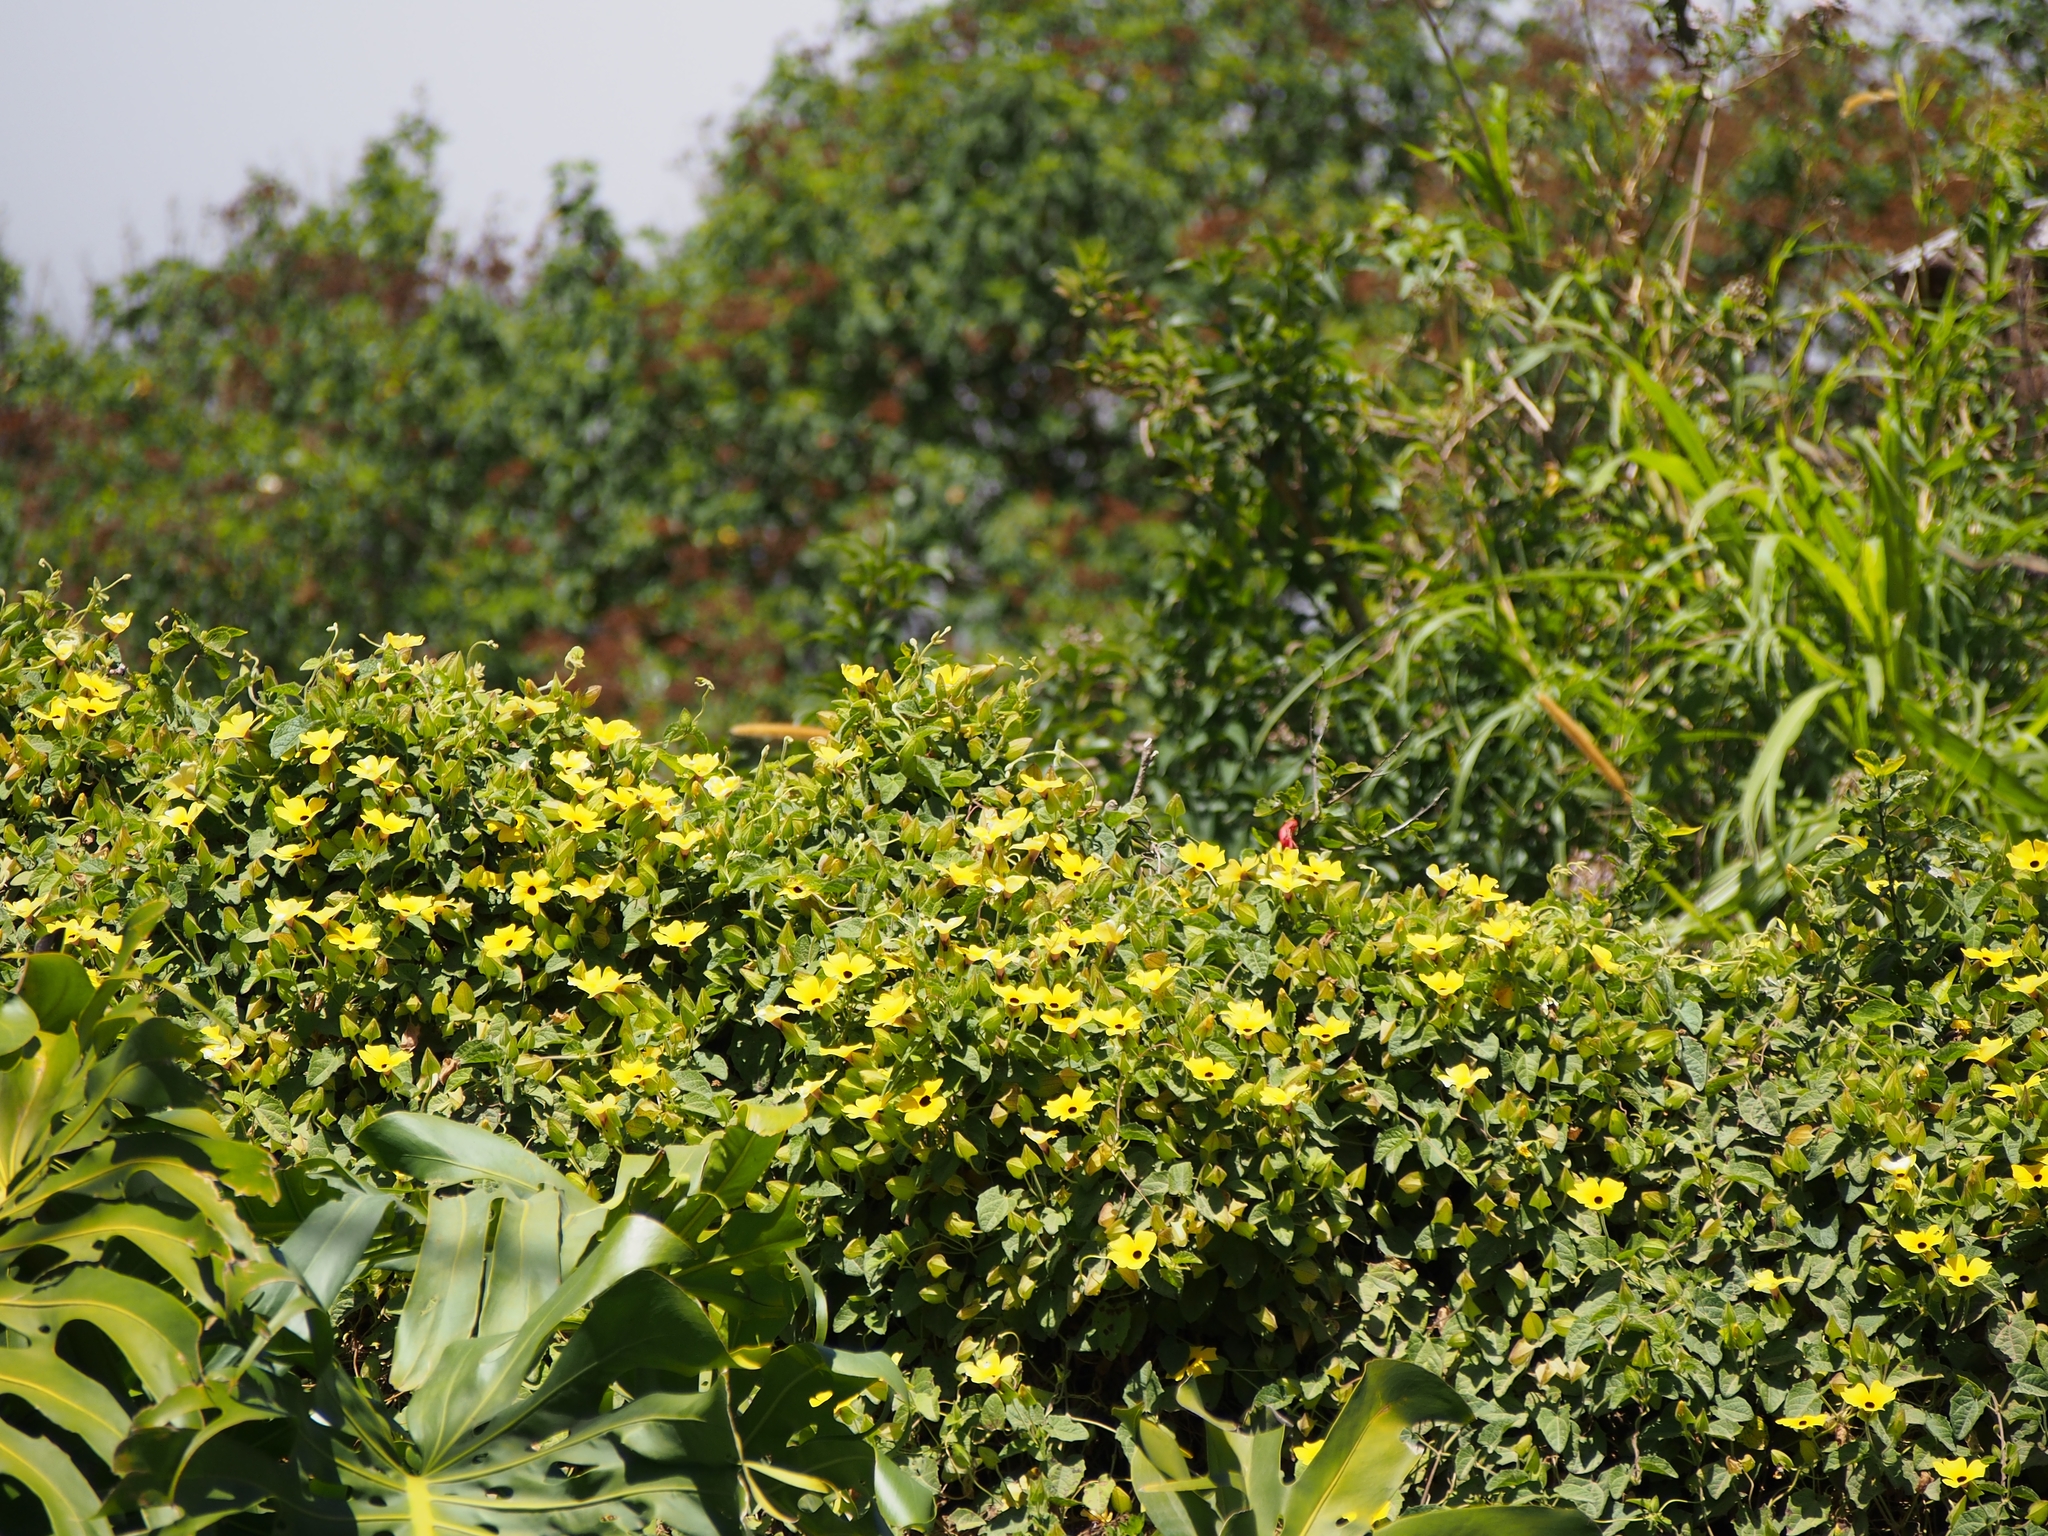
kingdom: Plantae
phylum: Tracheophyta
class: Magnoliopsida
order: Lamiales
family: Acanthaceae
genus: Thunbergia
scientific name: Thunbergia alata
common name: Blackeyed susan vine
